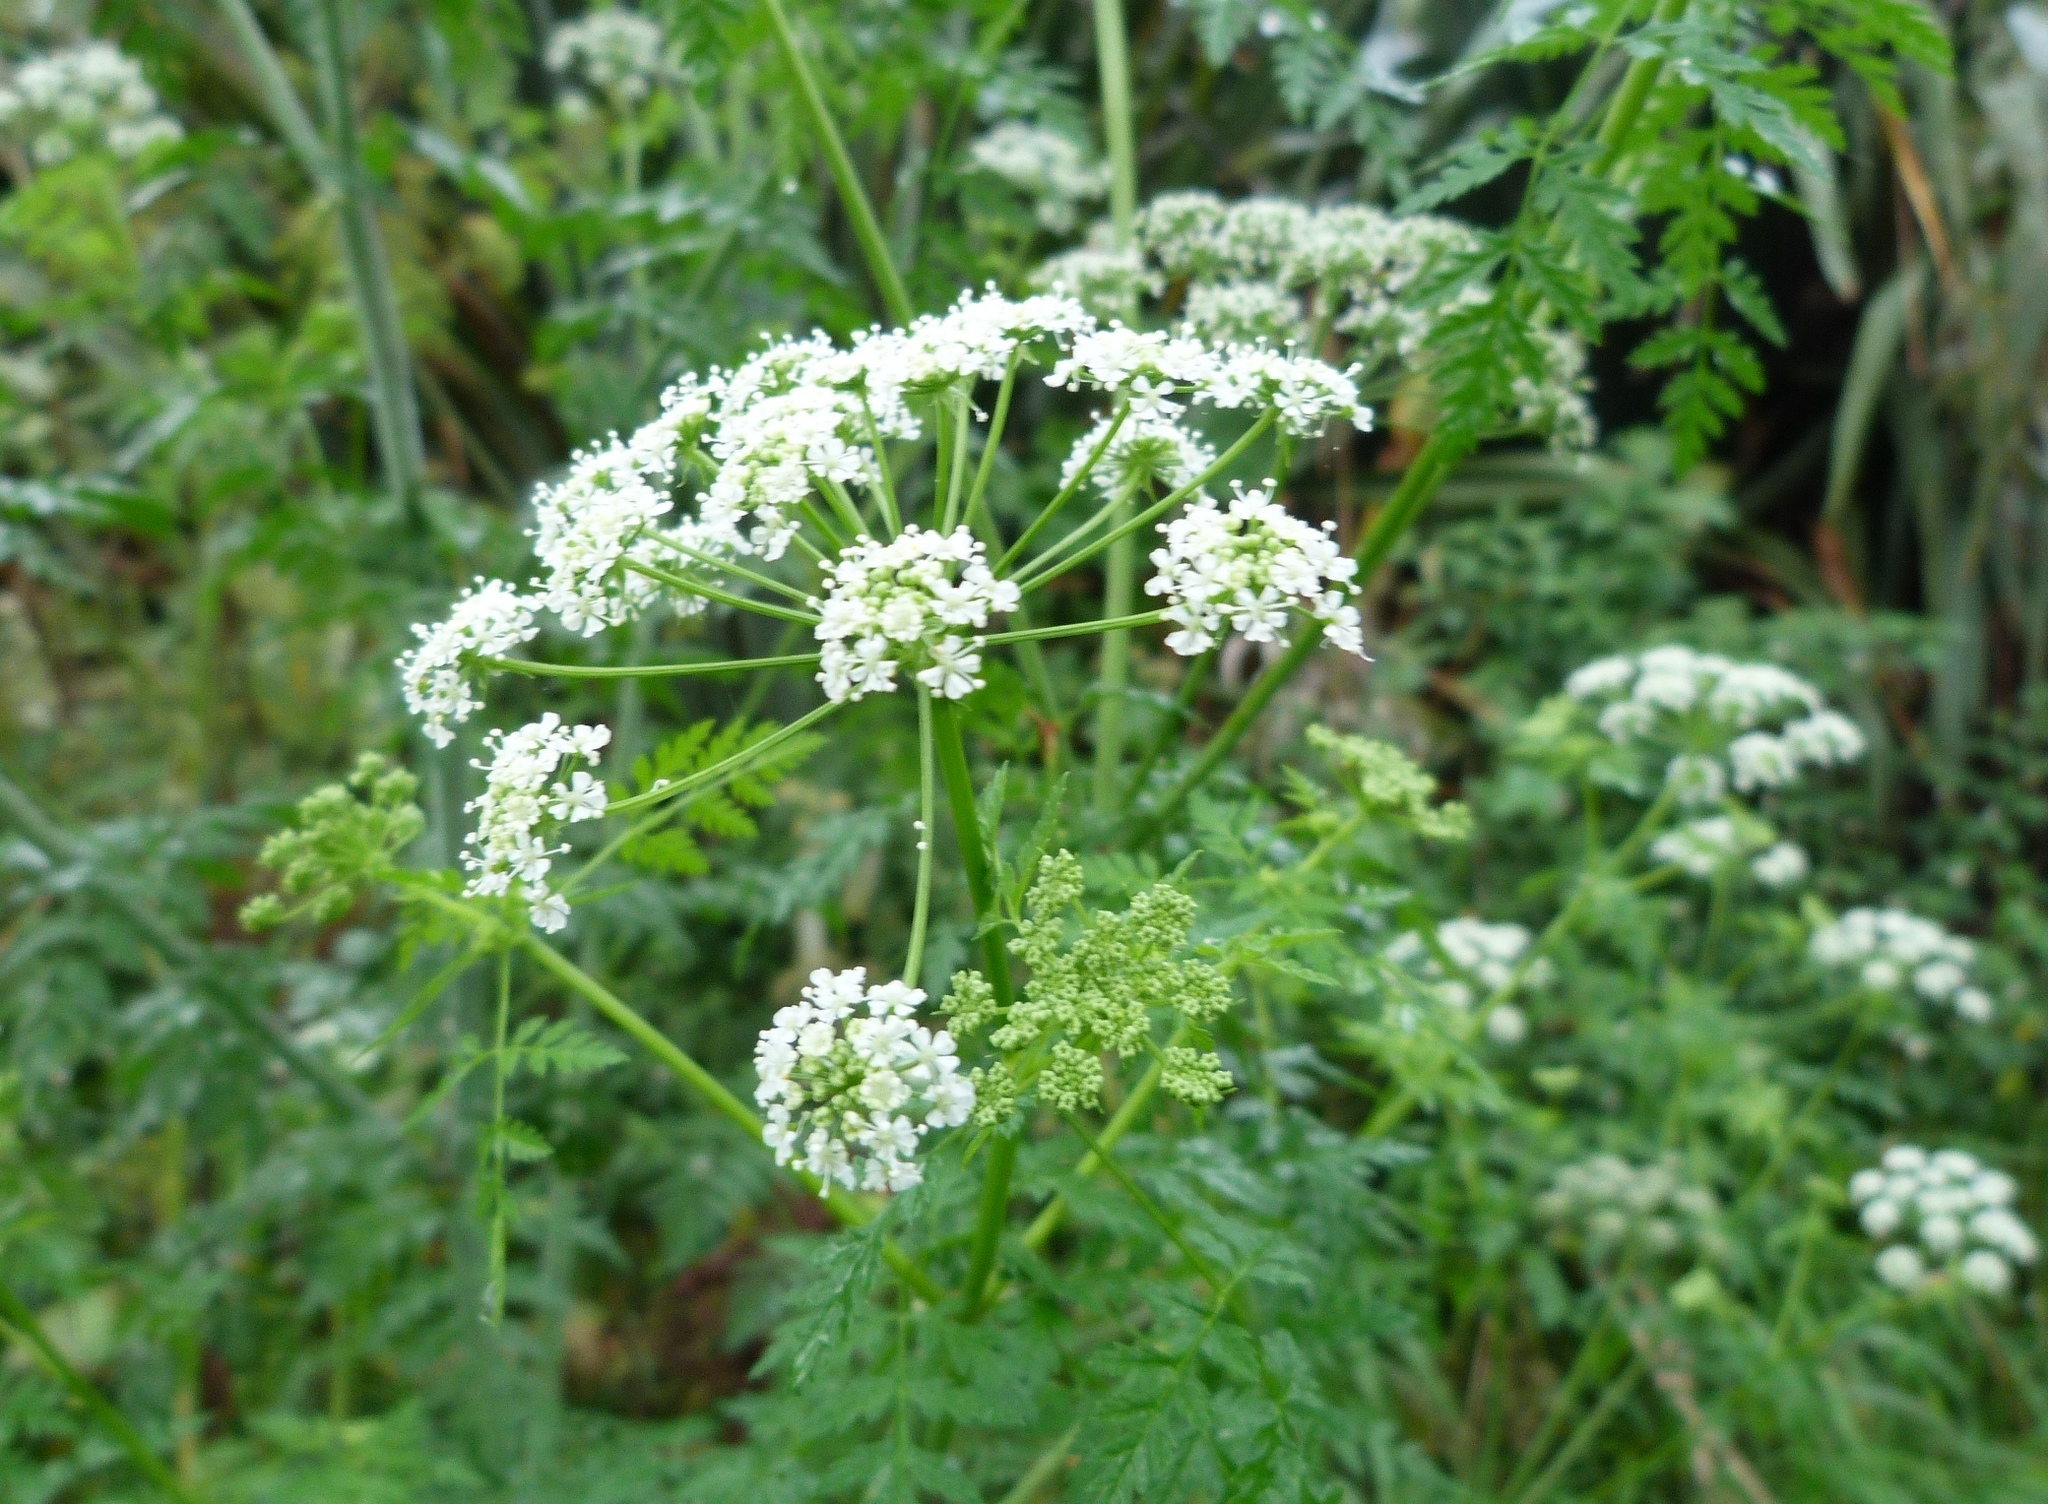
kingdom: Plantae
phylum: Tracheophyta
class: Magnoliopsida
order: Apiales
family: Apiaceae
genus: Conium
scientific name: Conium maculatum
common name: Hemlock
